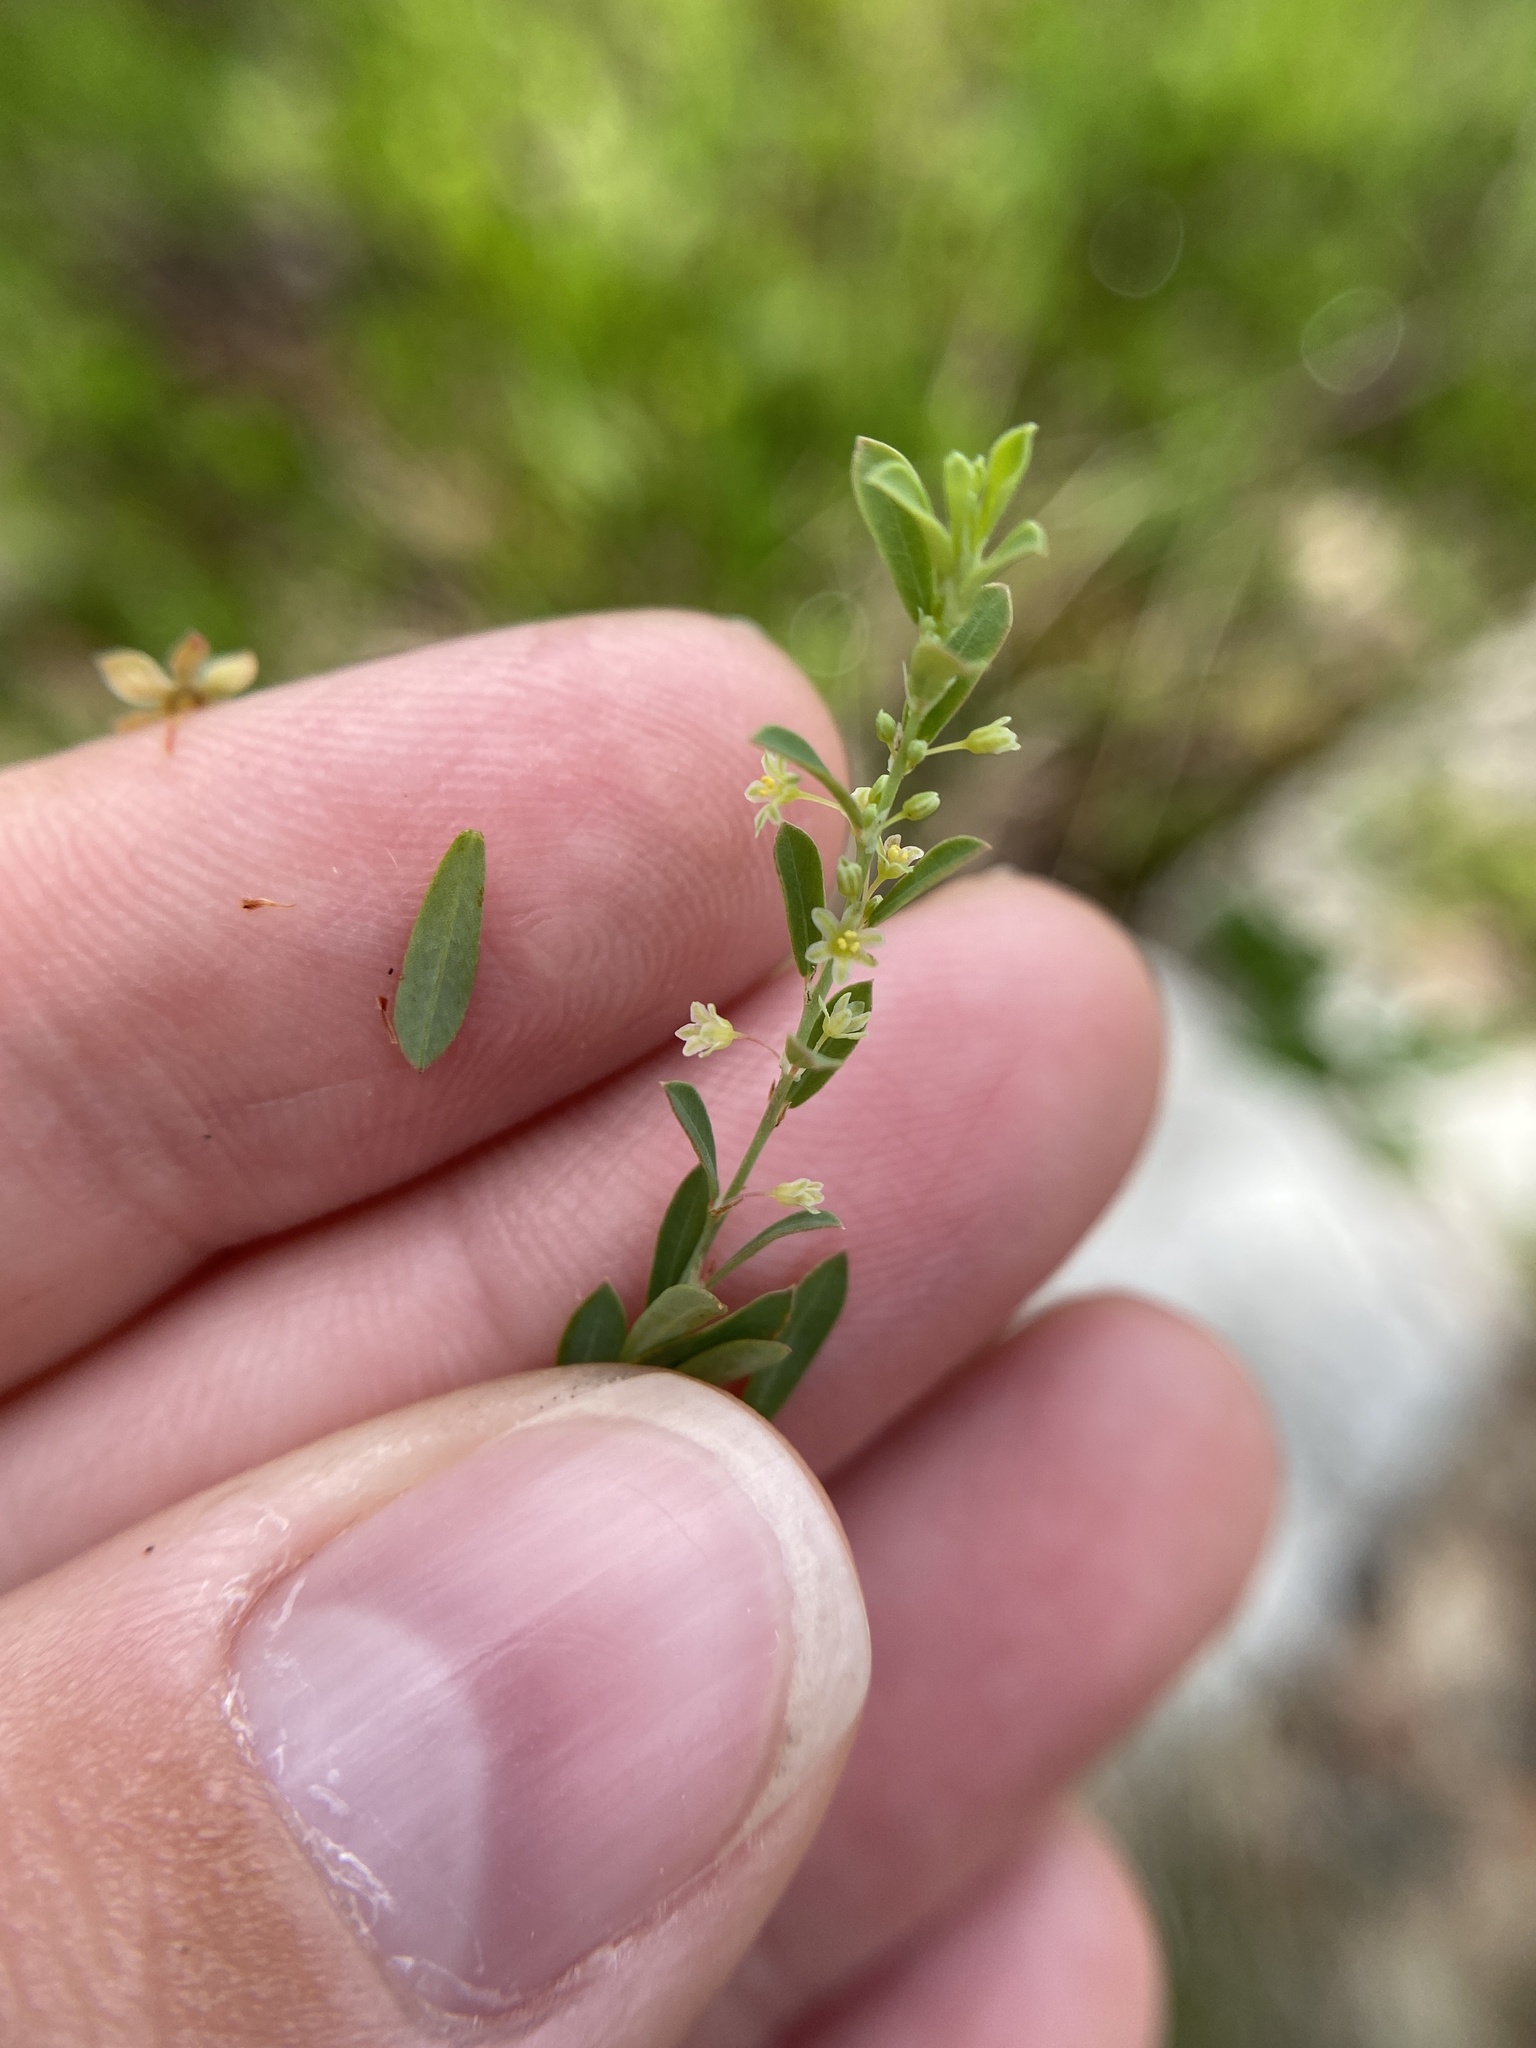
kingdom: Plantae
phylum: Tracheophyta
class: Magnoliopsida
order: Malpighiales
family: Phyllanthaceae
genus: Phyllanthus
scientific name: Phyllanthus polygonoides
